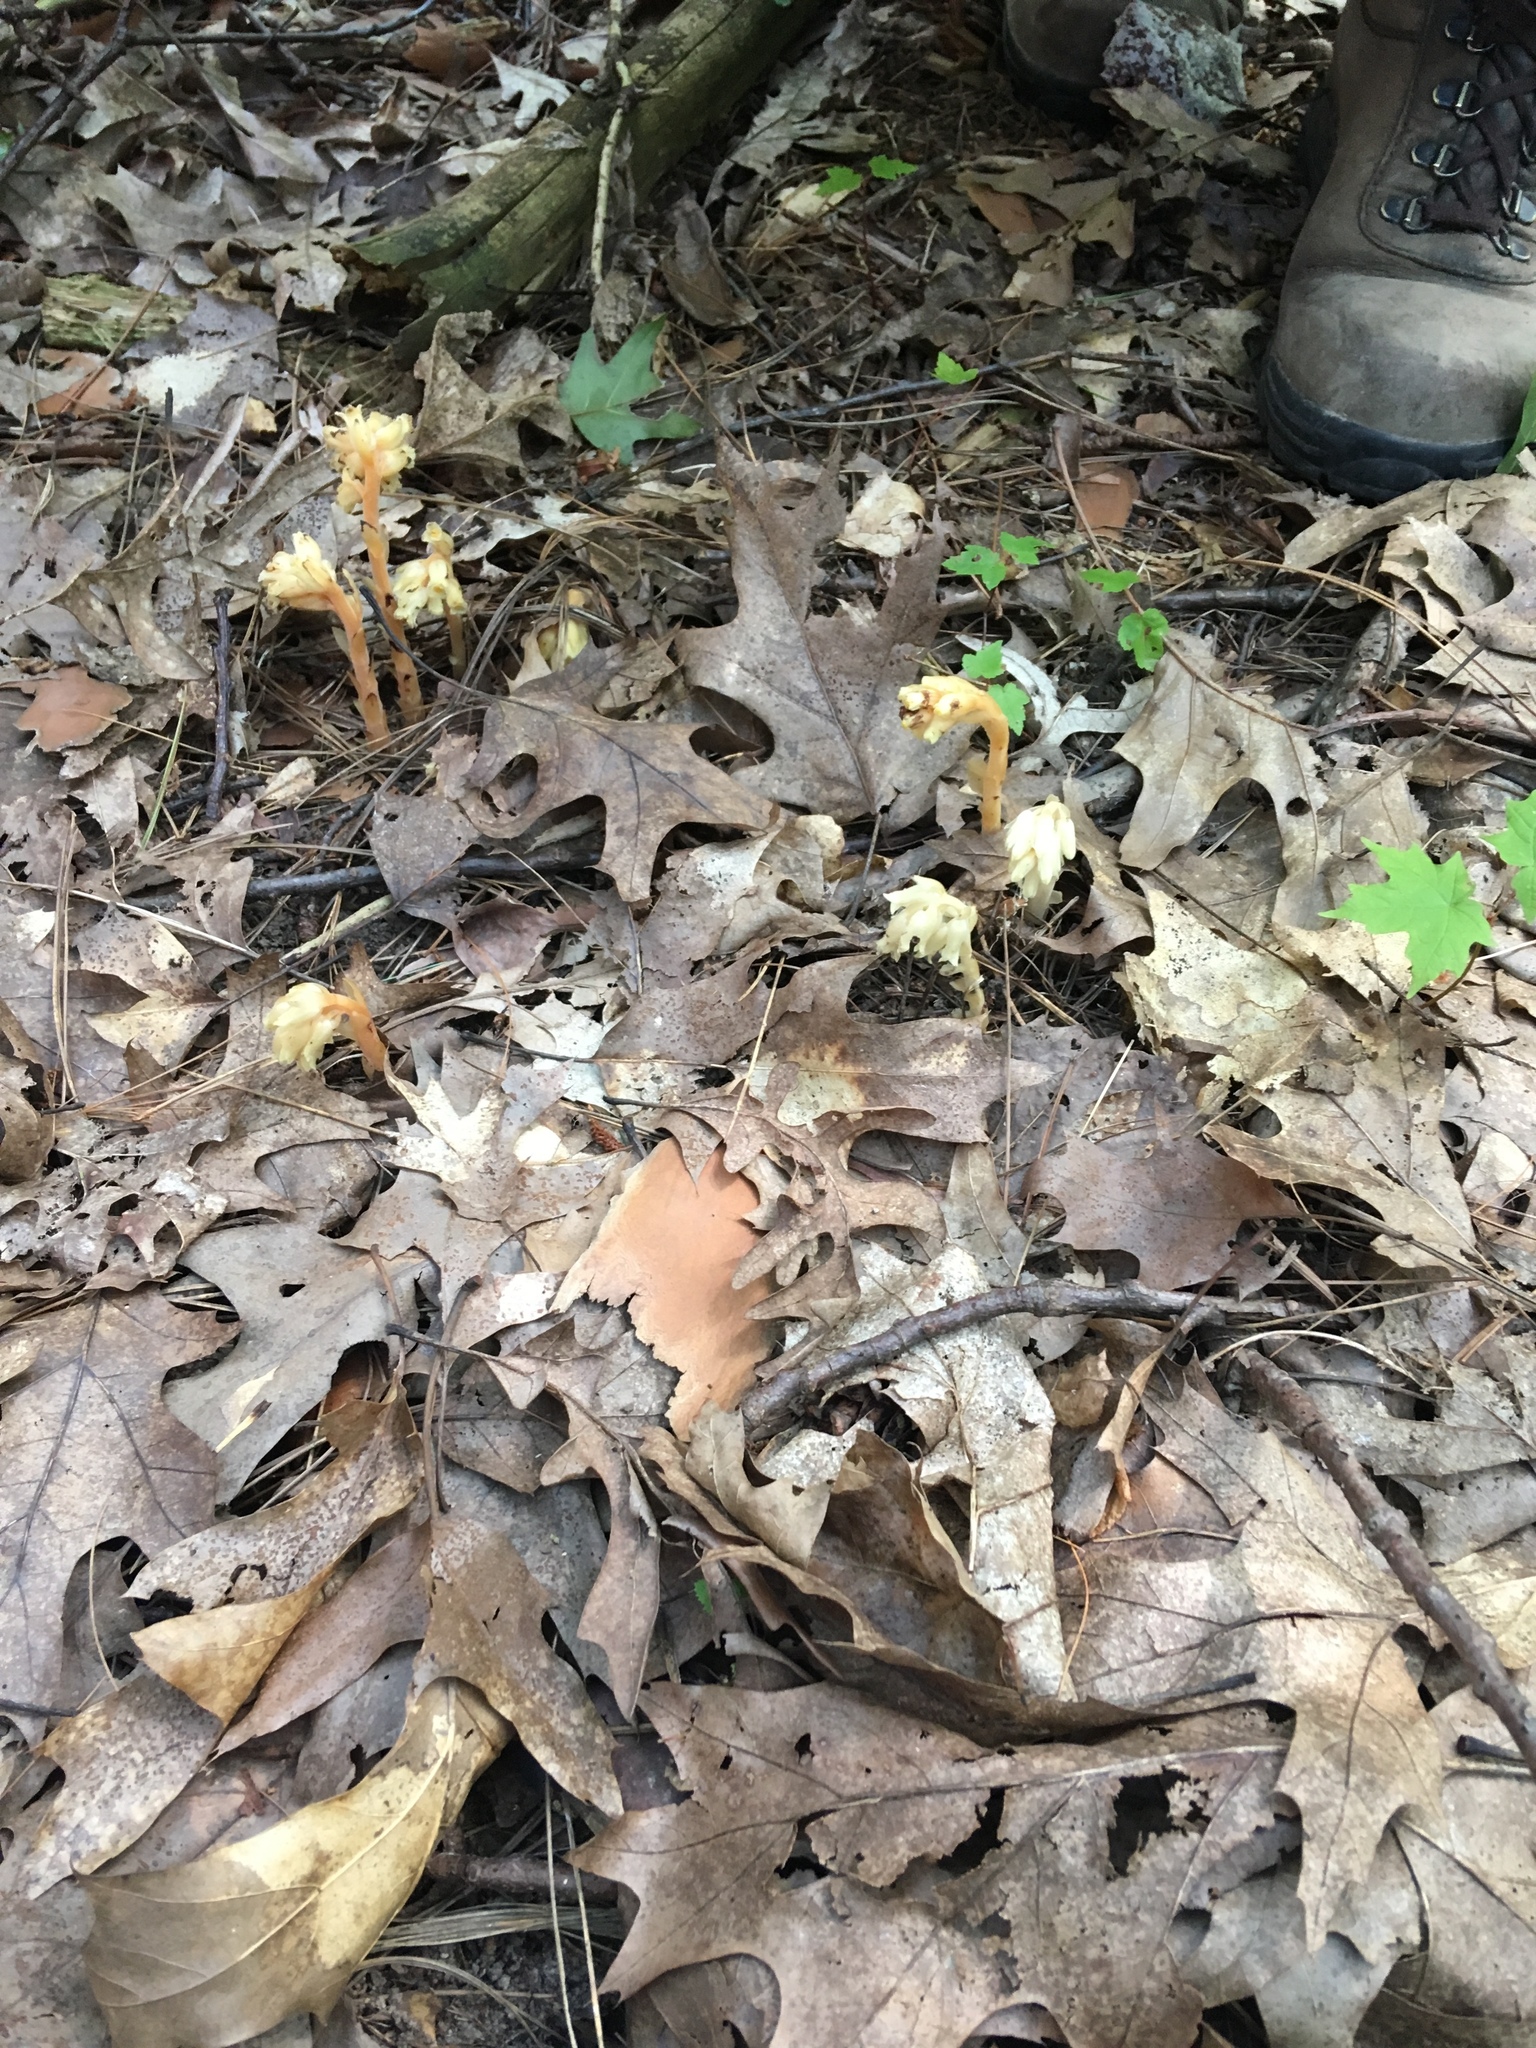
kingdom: Plantae
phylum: Tracheophyta
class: Magnoliopsida
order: Ericales
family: Ericaceae
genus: Hypopitys
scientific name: Hypopitys monotropa
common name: Yellow bird's-nest
